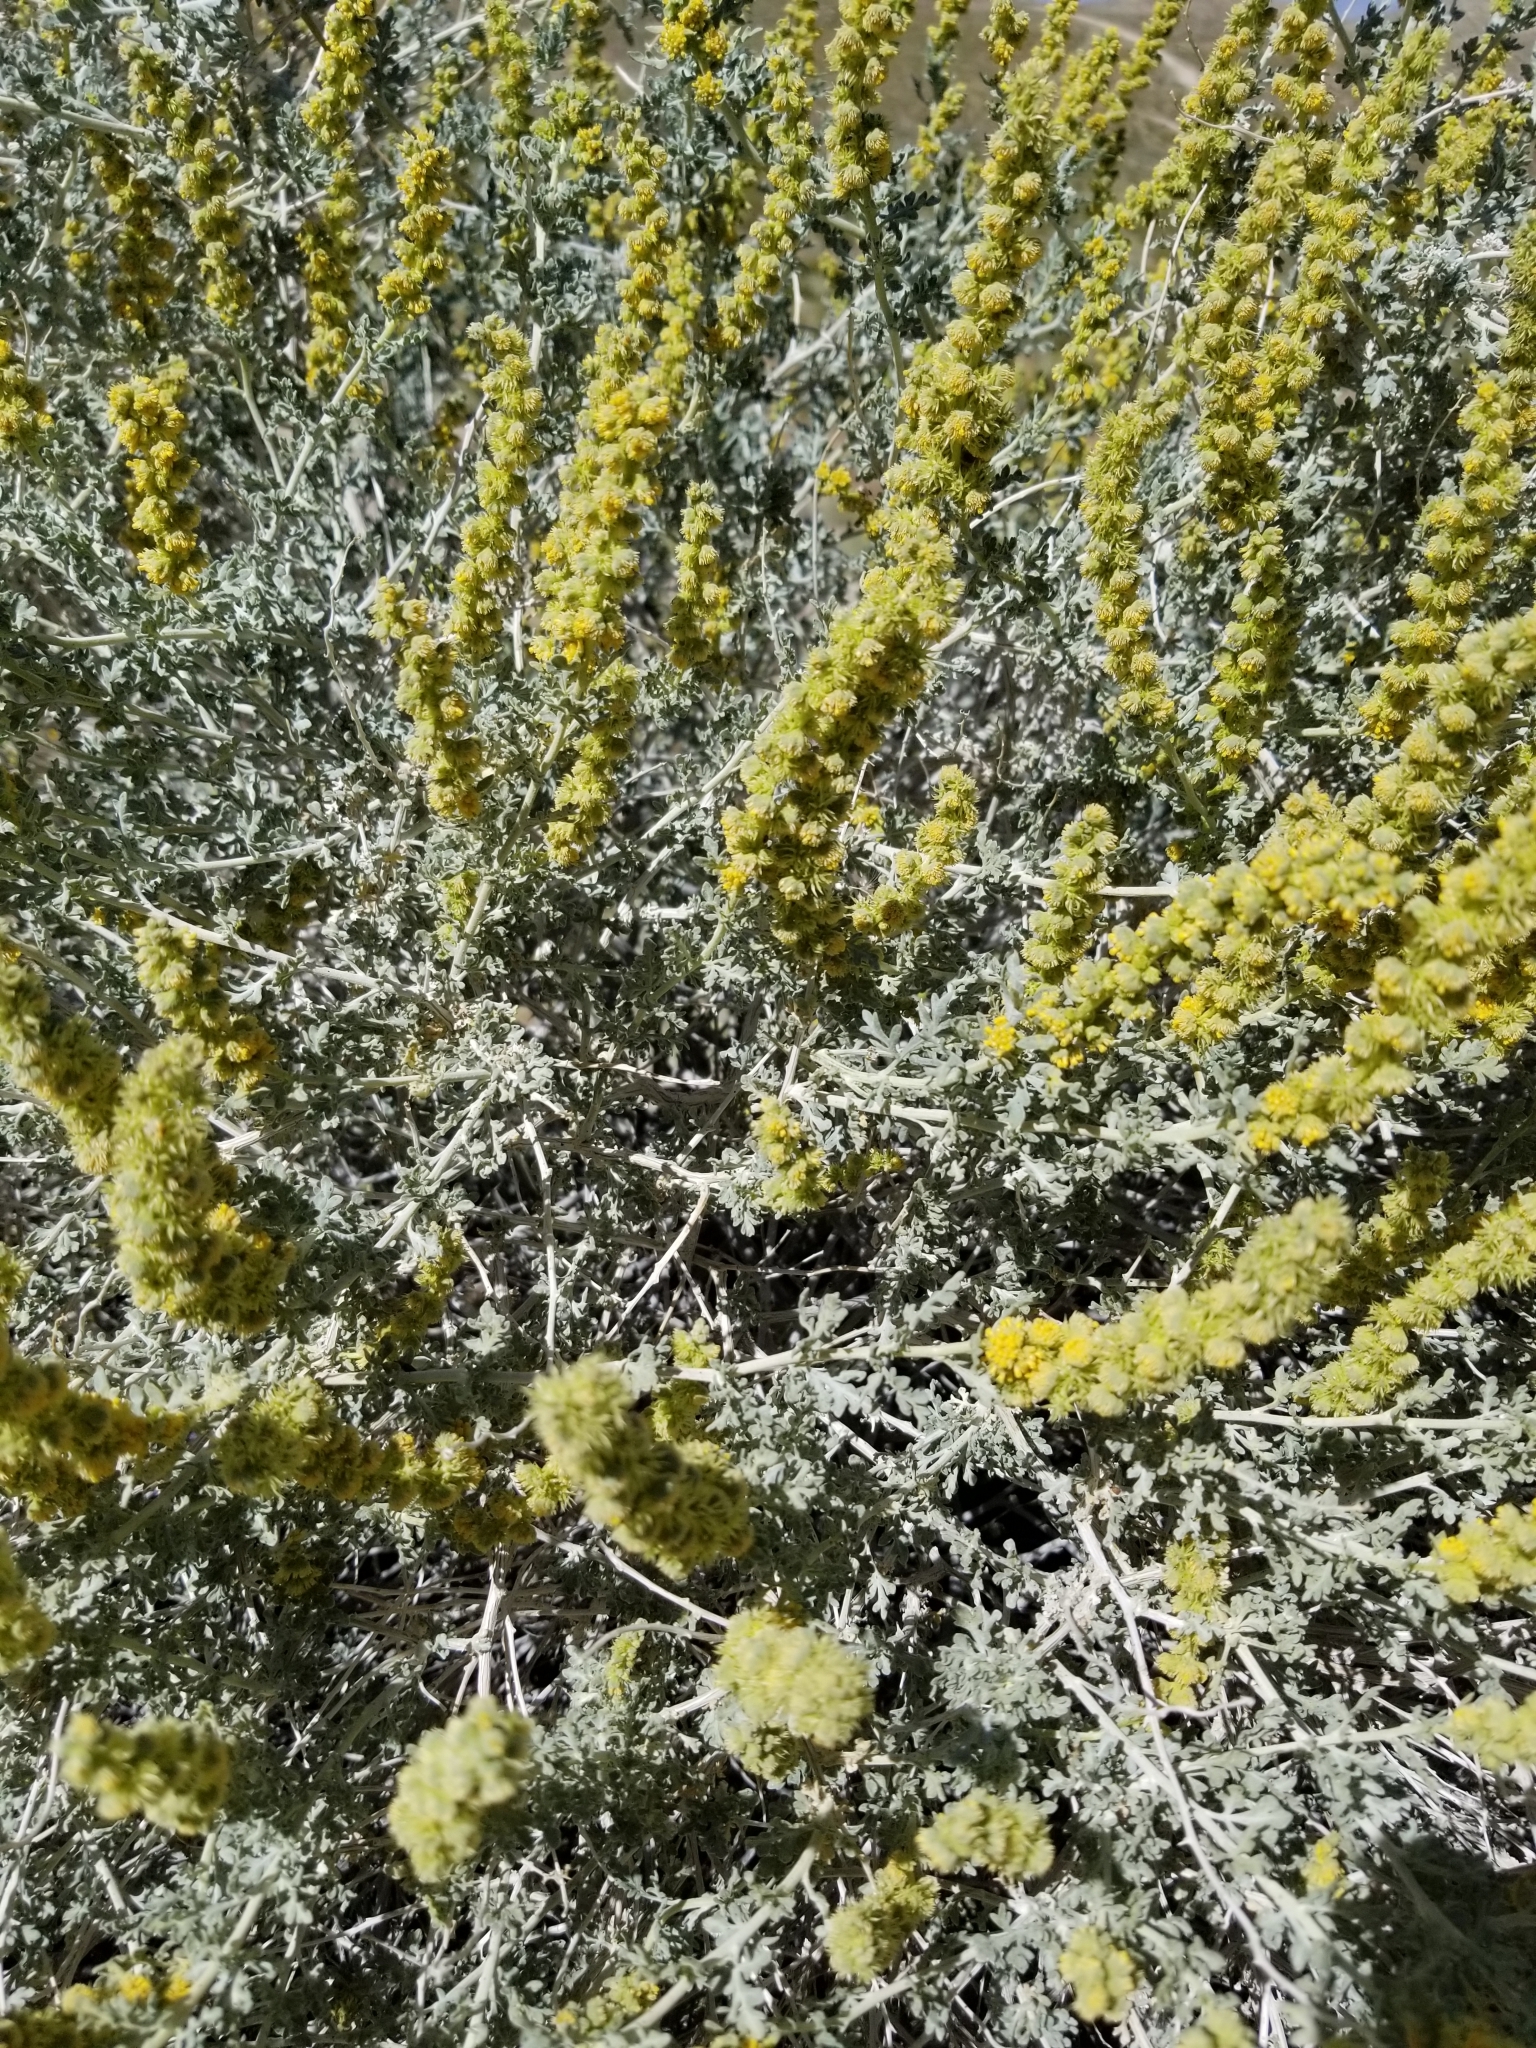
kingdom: Plantae
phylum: Tracheophyta
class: Magnoliopsida
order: Asterales
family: Asteraceae
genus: Ambrosia
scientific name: Ambrosia dumosa
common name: Bur-sage
